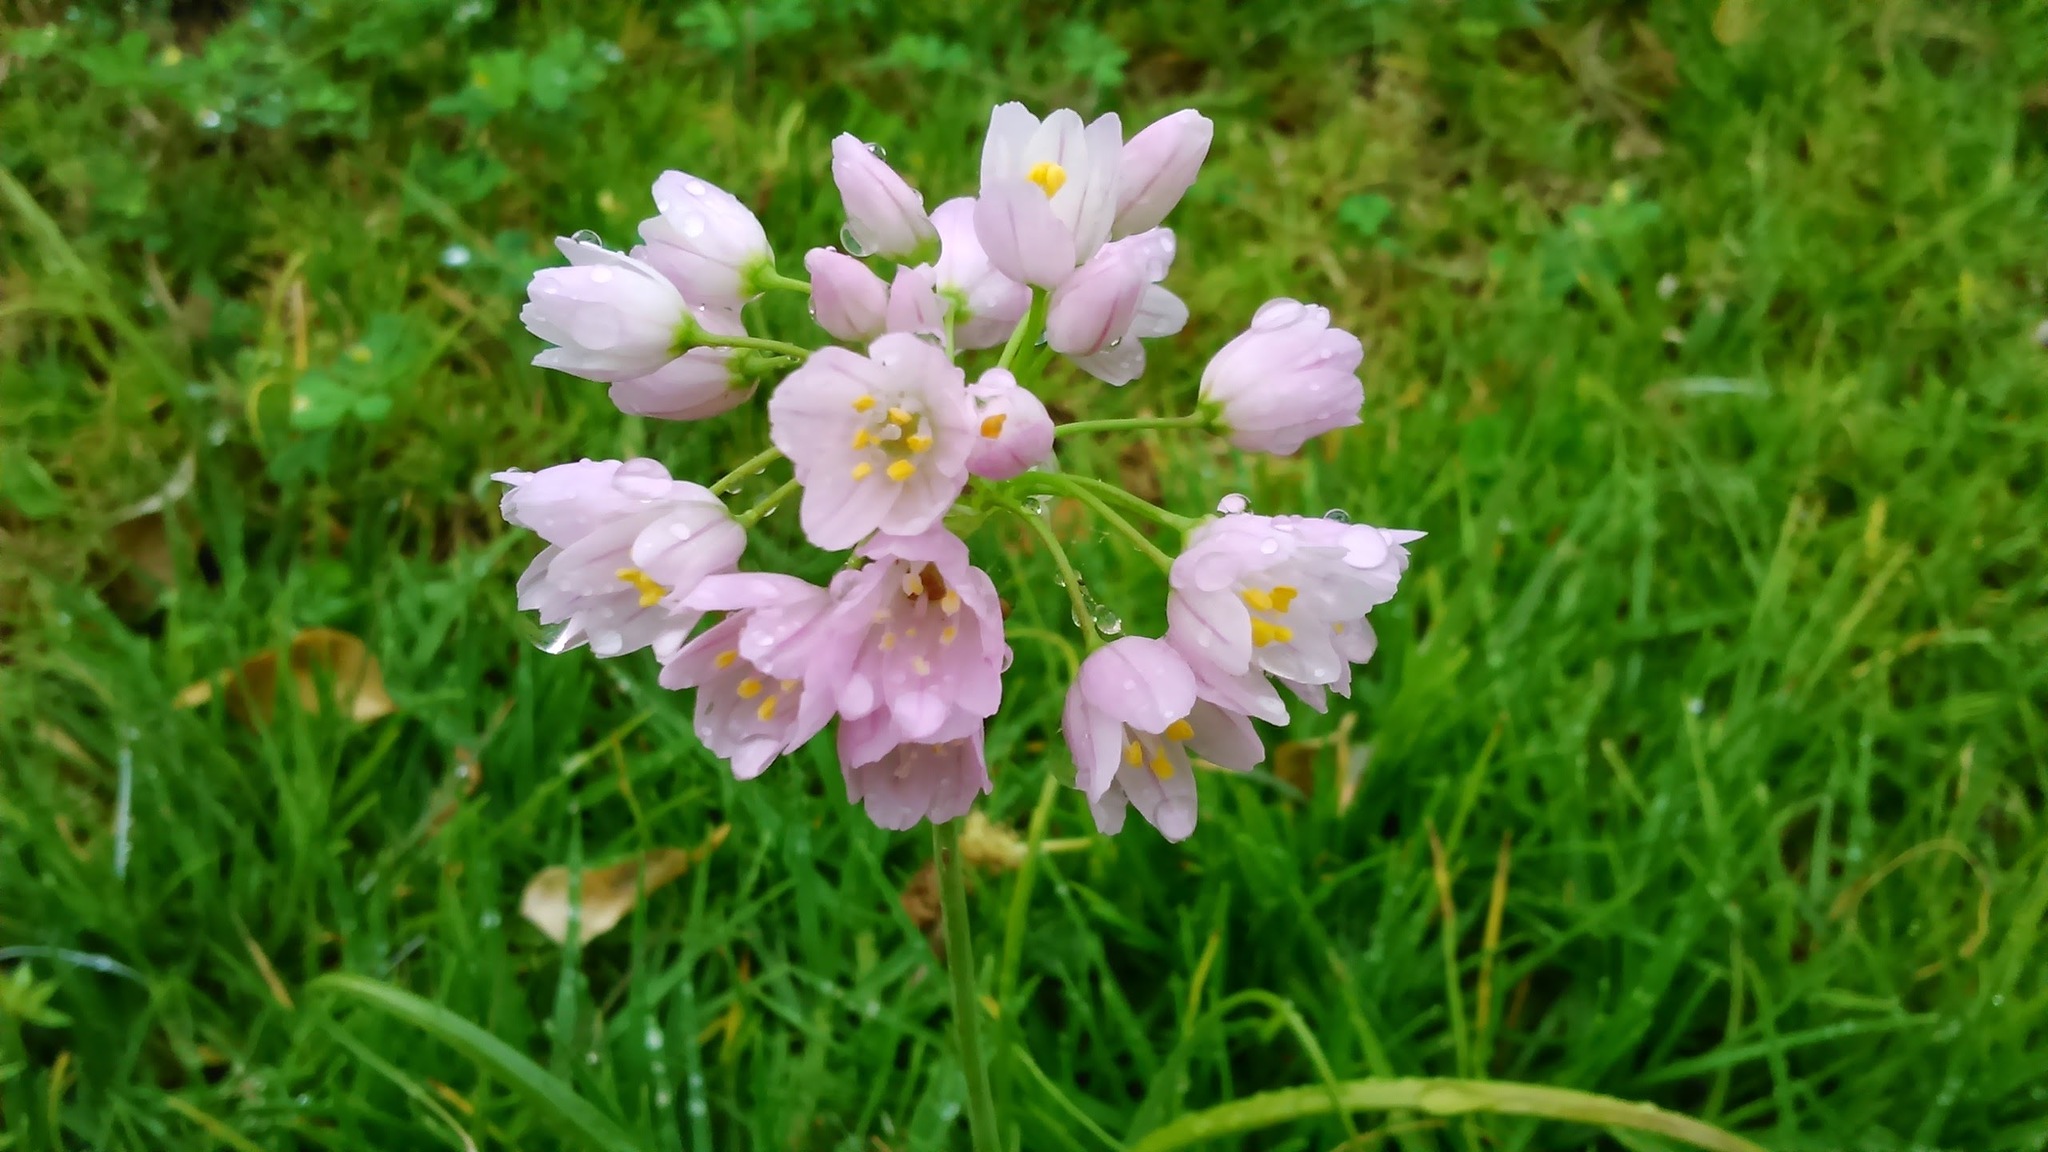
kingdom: Plantae
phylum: Tracheophyta
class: Liliopsida
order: Asparagales
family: Amaryllidaceae
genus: Allium
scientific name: Allium roseum
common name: Rosy garlic
